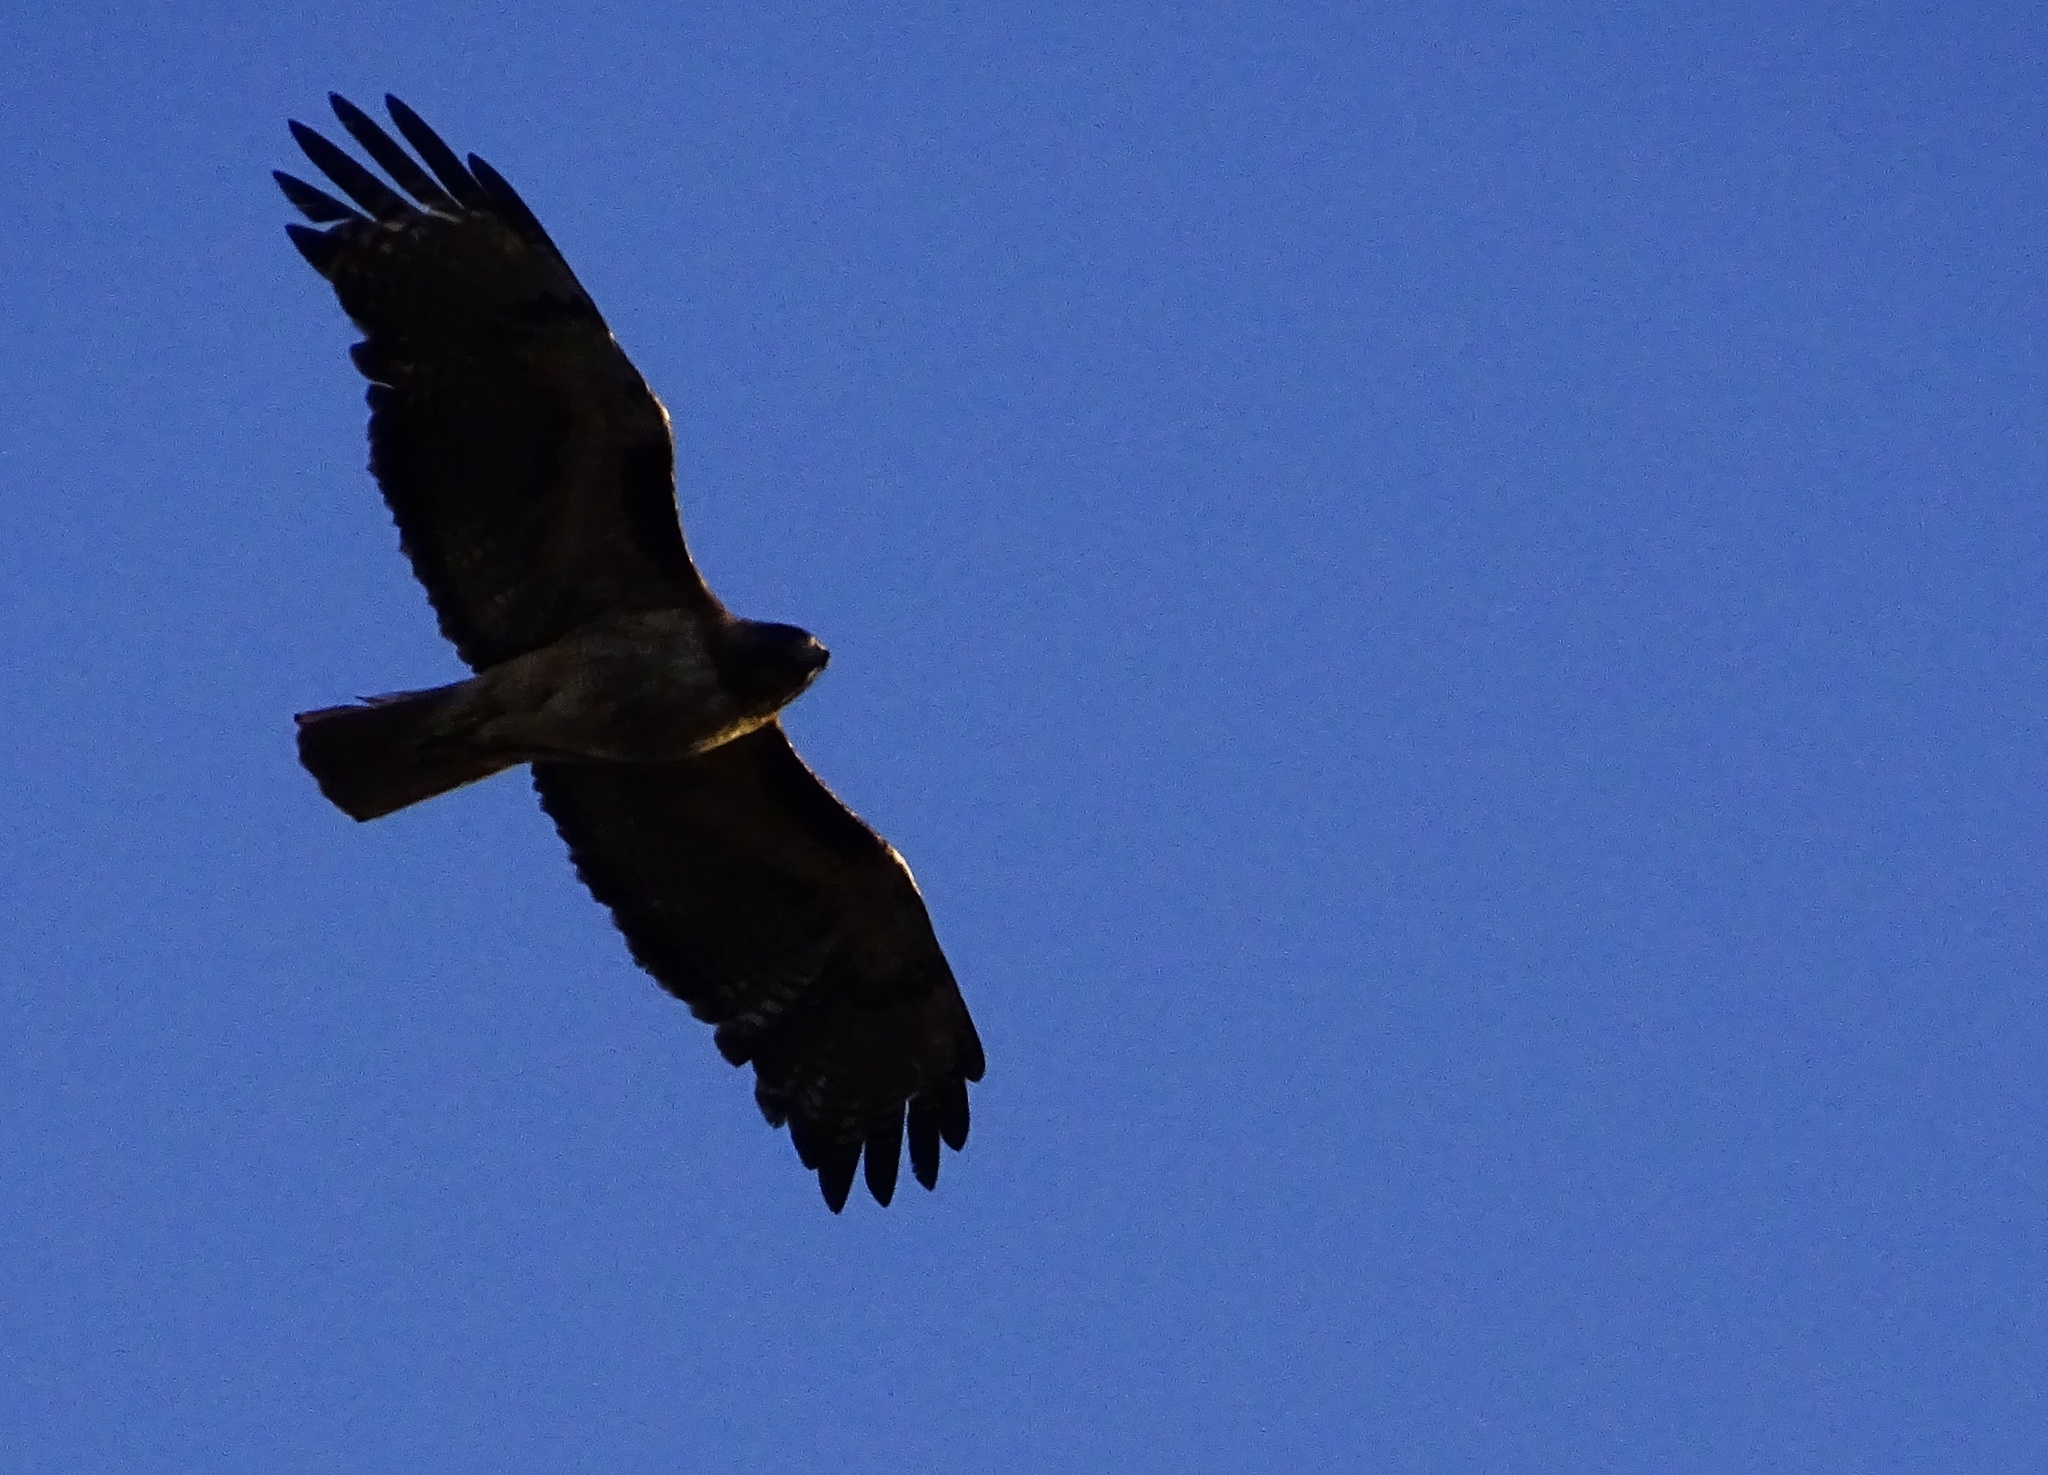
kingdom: Animalia
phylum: Chordata
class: Aves
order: Accipitriformes
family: Accipitridae
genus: Buteo
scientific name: Buteo jamaicensis
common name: Red-tailed hawk
